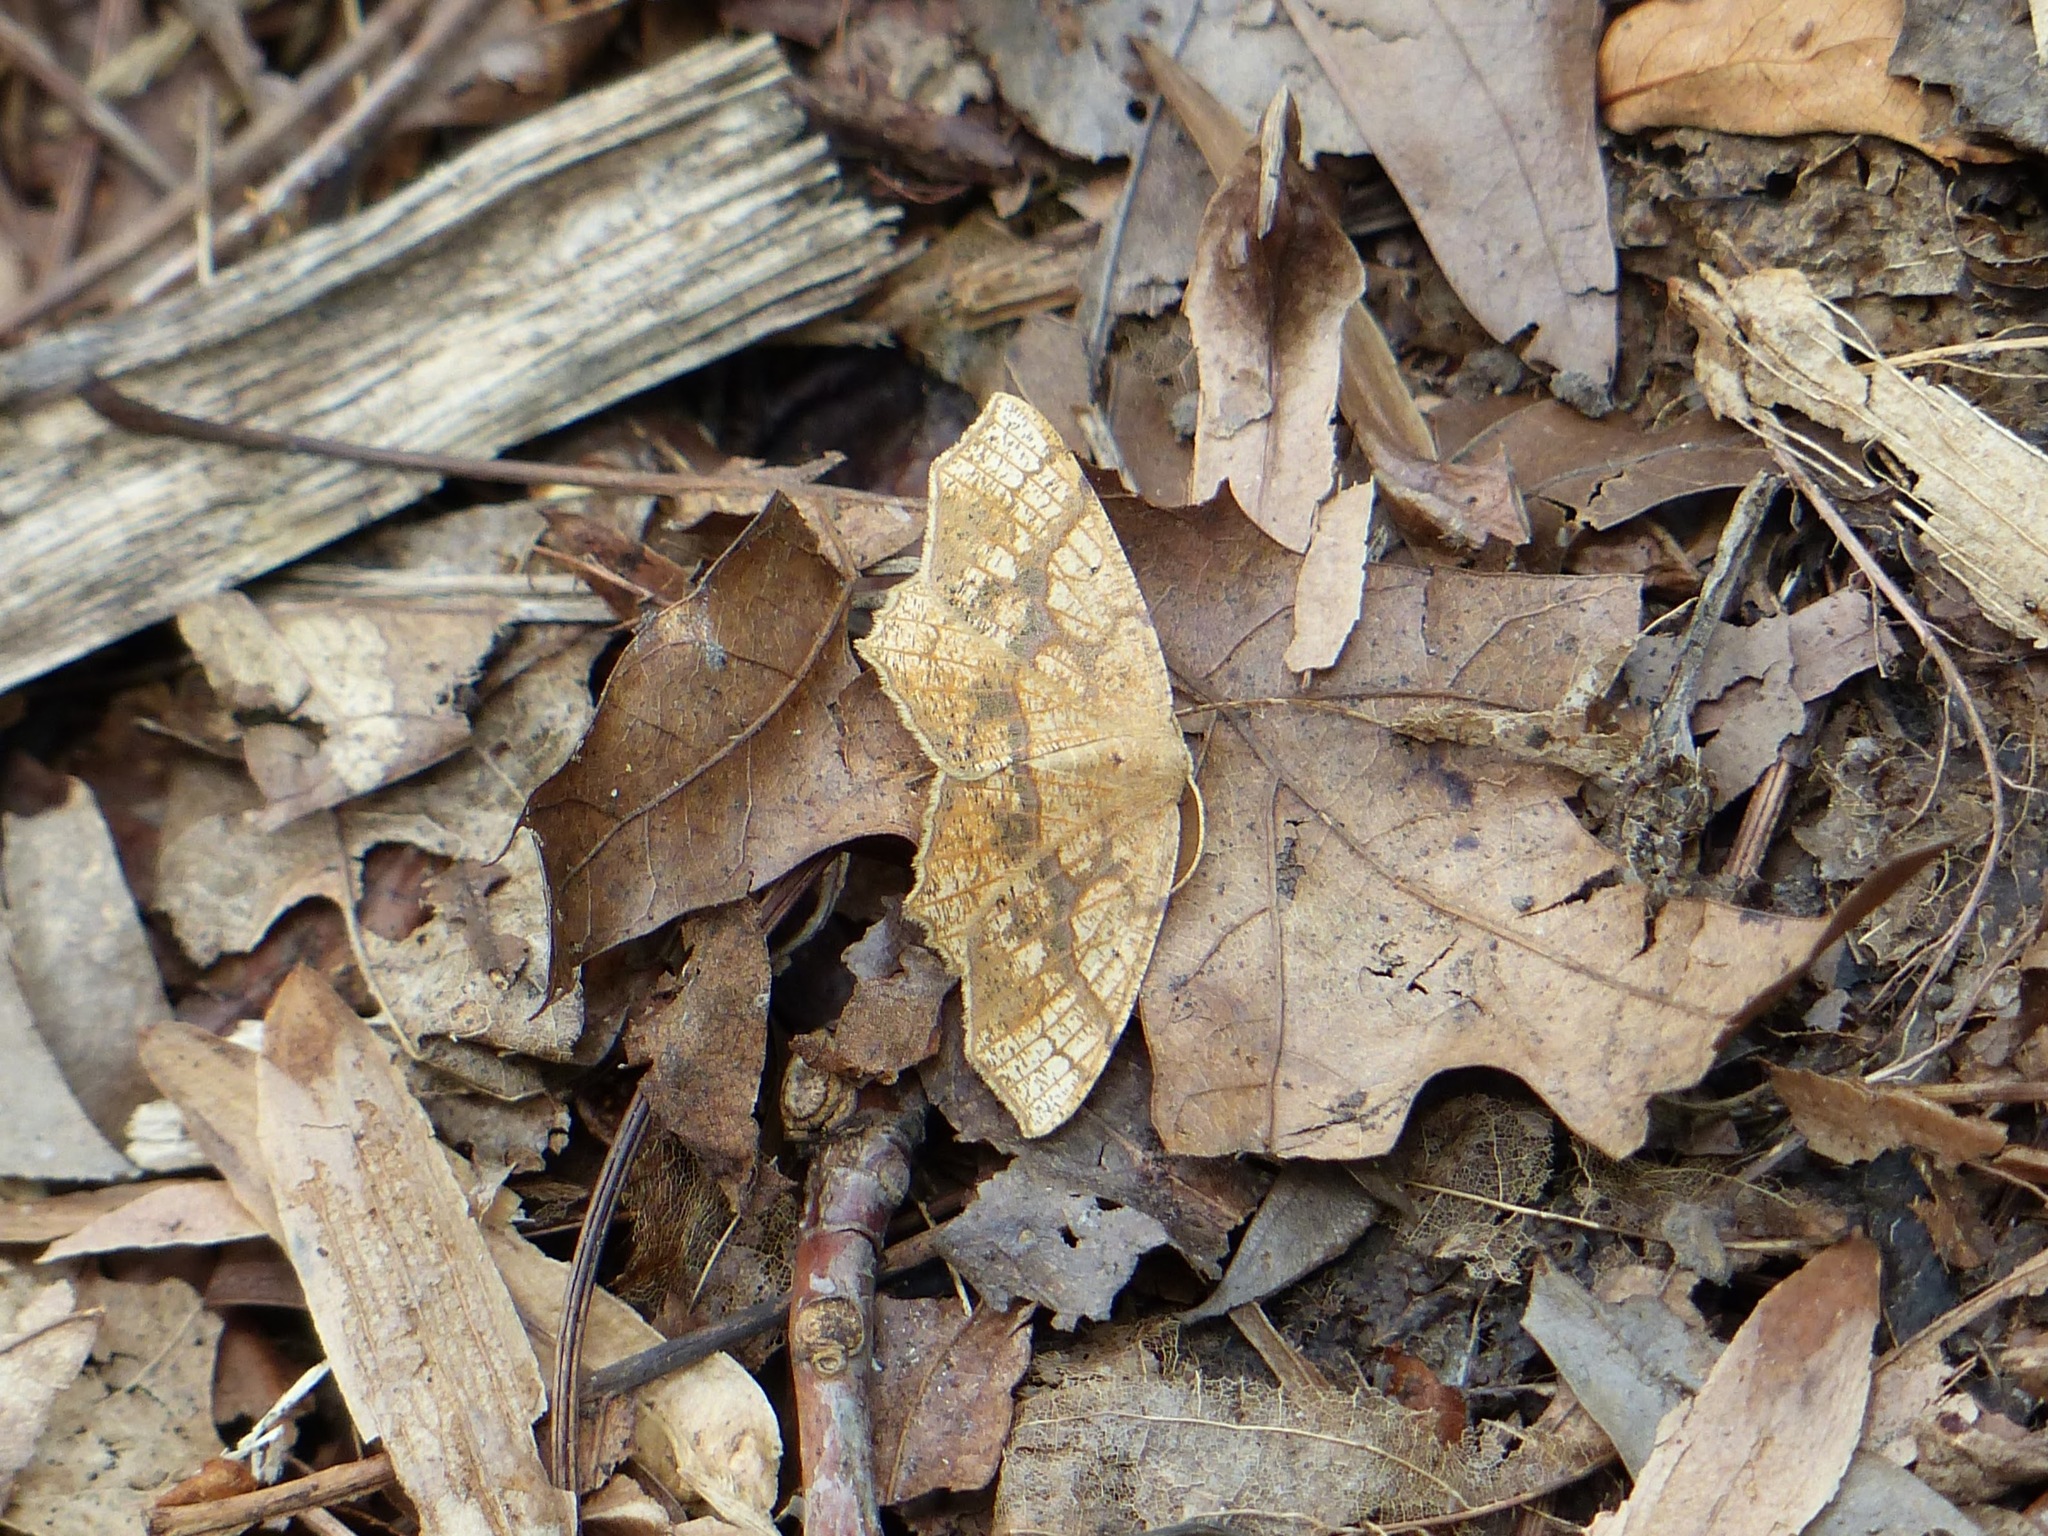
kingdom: Animalia
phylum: Arthropoda
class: Insecta
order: Lepidoptera
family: Geometridae
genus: Besma
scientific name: Besma quercivoraria
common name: Oak besma
